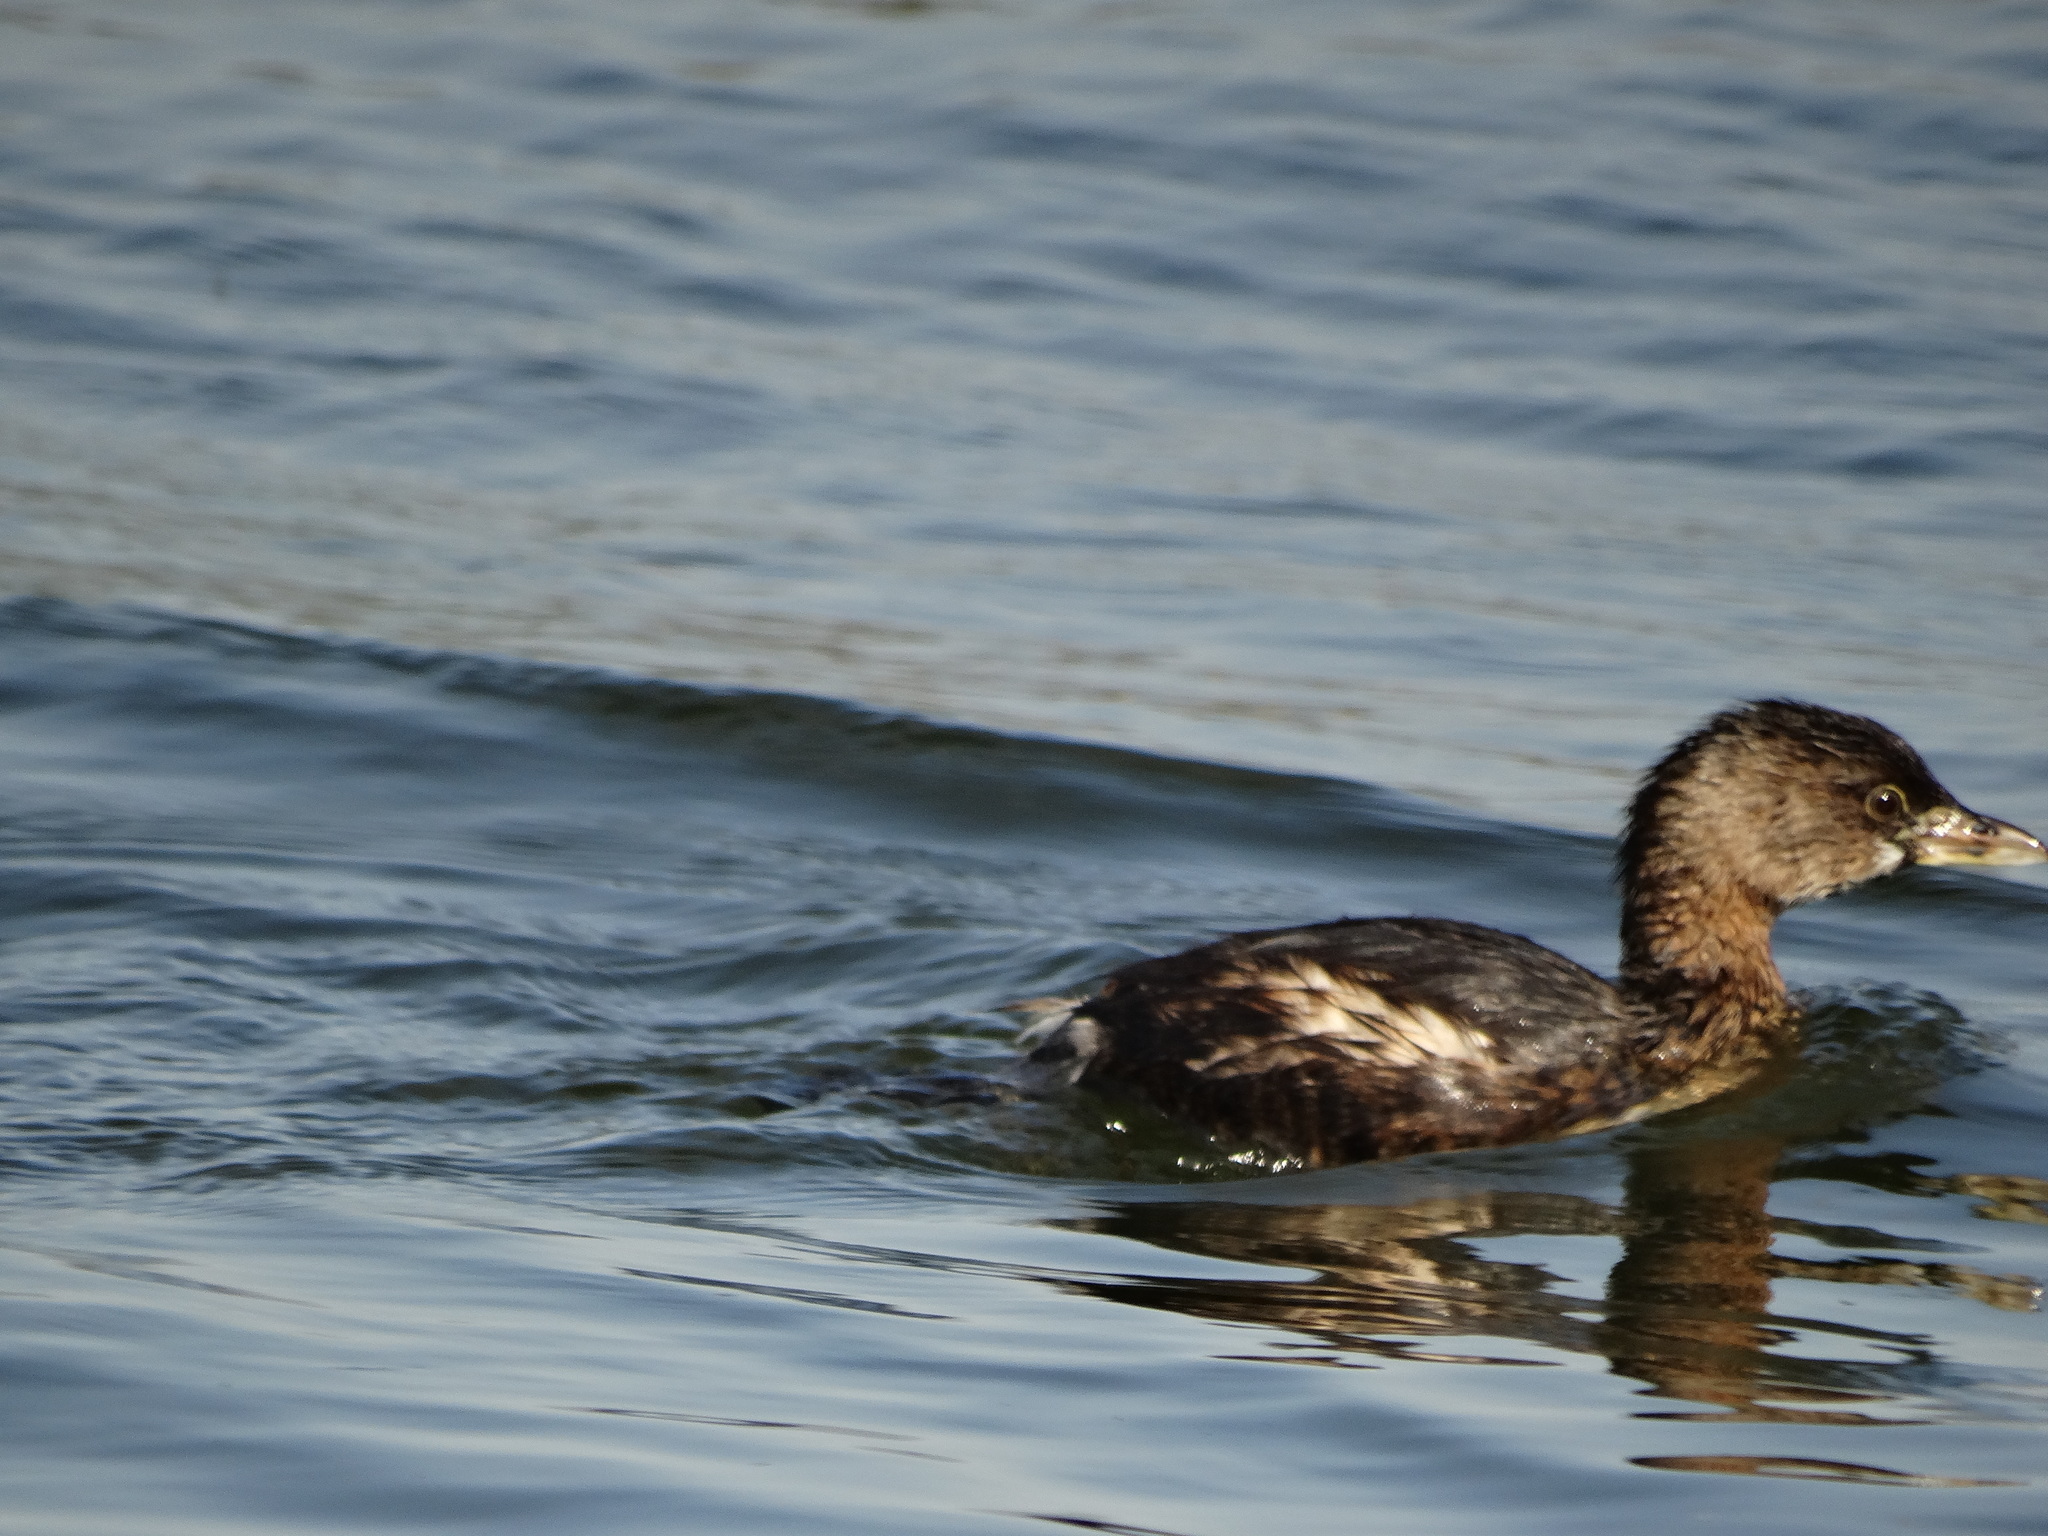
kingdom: Animalia
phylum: Chordata
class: Aves
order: Podicipediformes
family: Podicipedidae
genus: Podilymbus
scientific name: Podilymbus podiceps
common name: Pied-billed grebe
